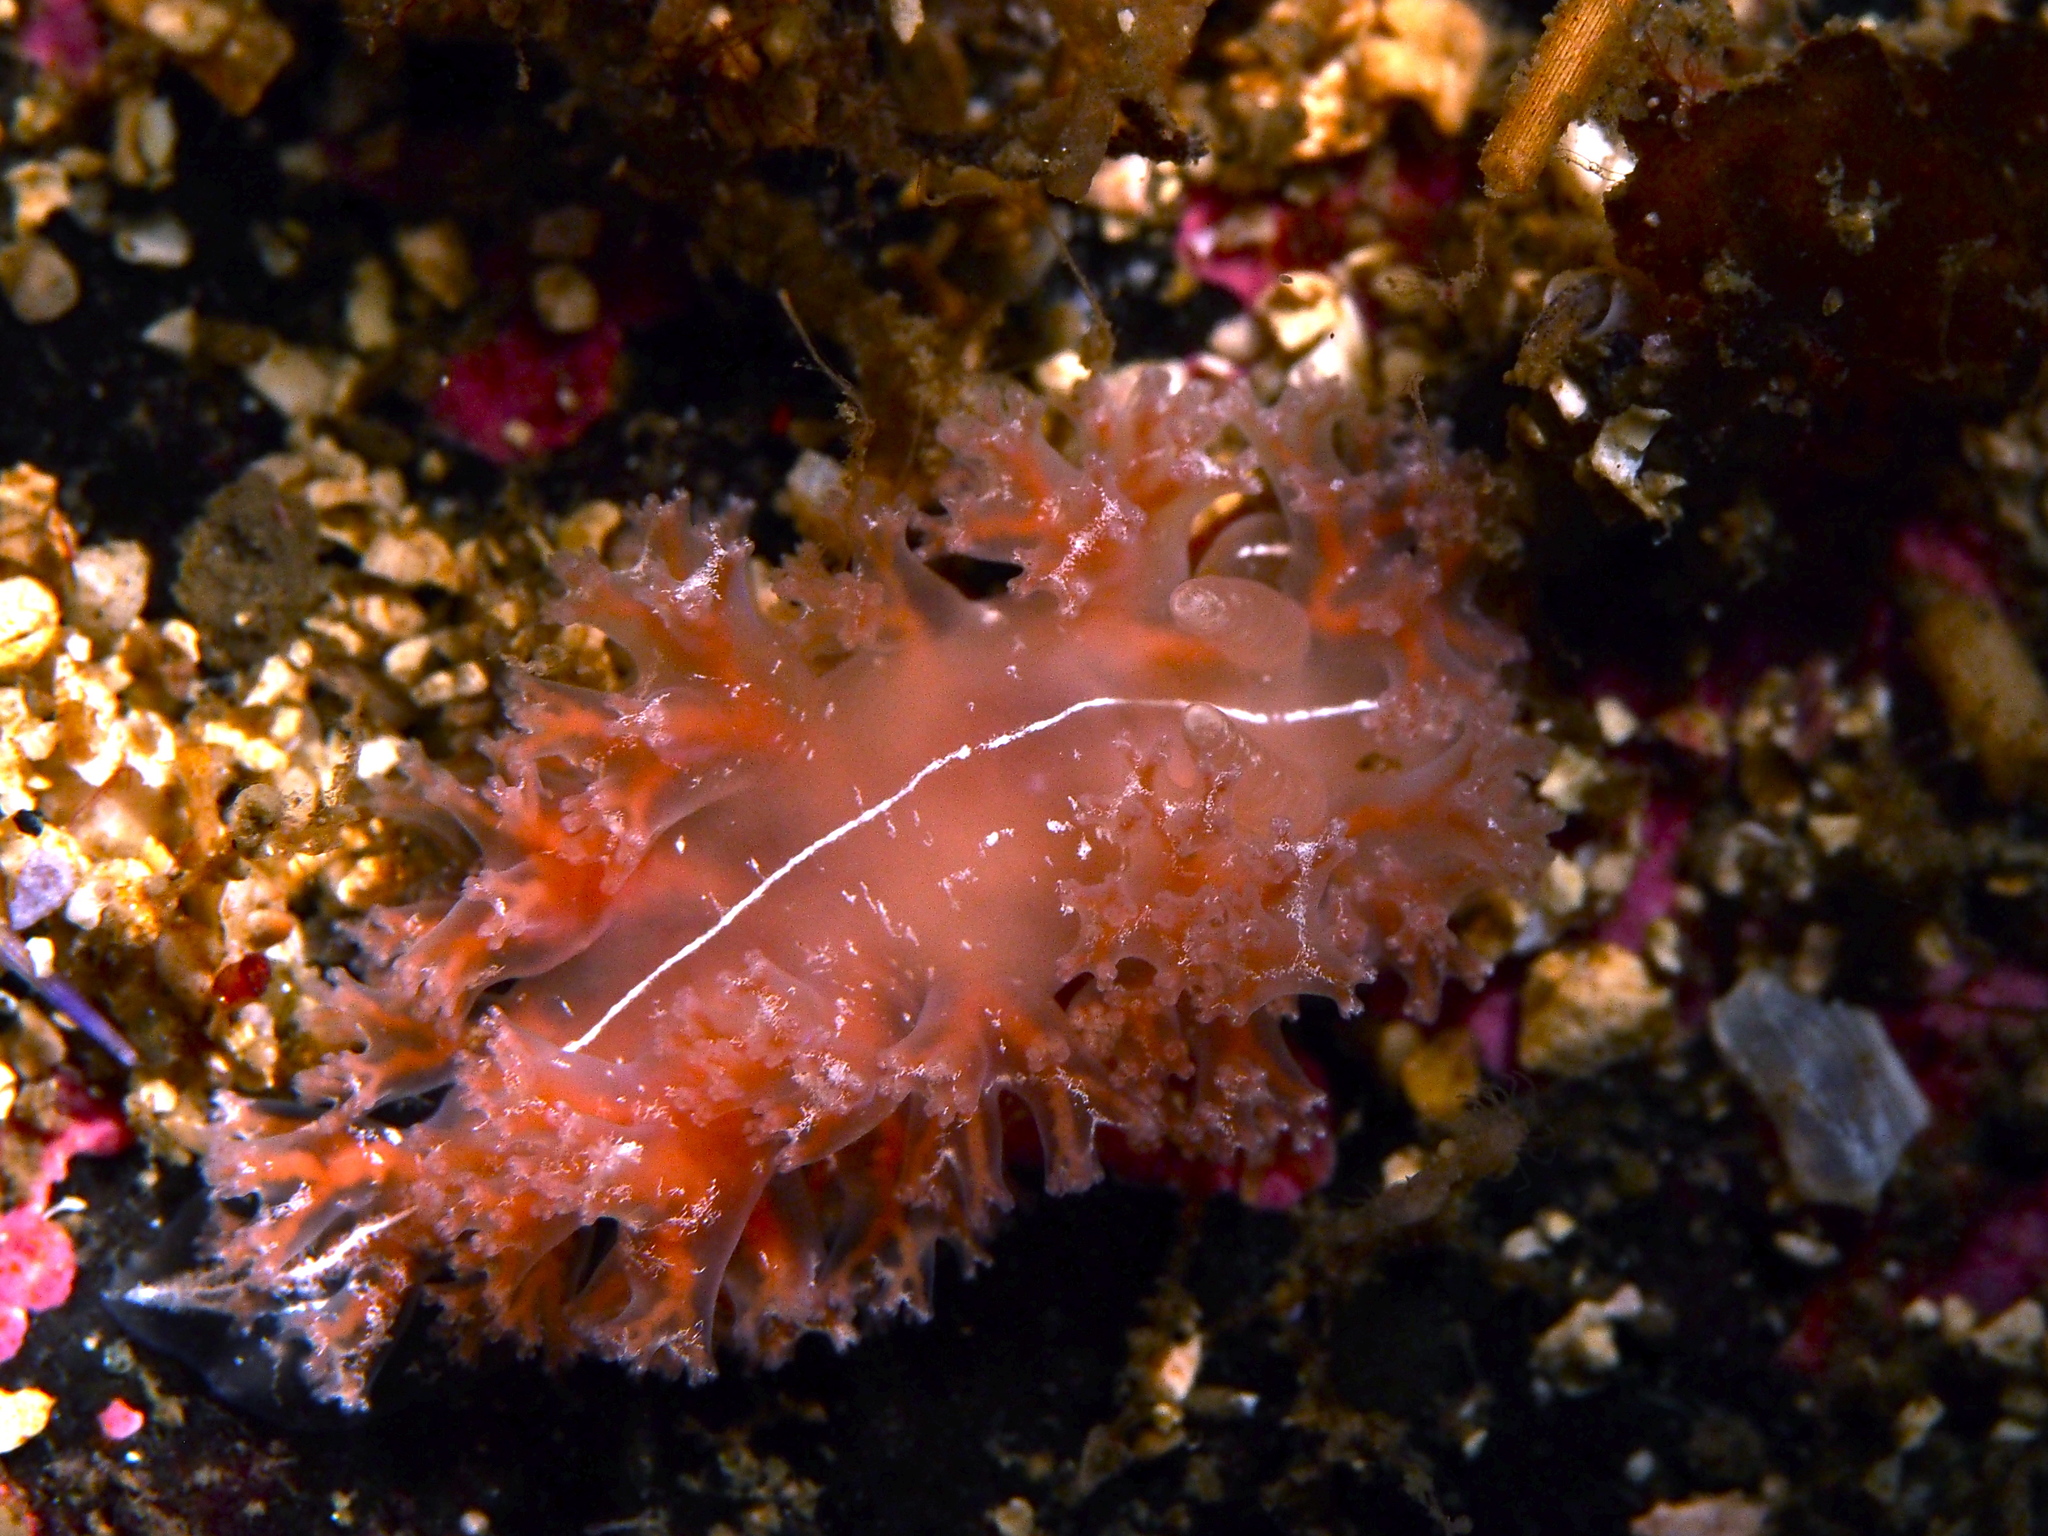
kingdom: Animalia
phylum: Mollusca
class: Gastropoda
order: Nudibranchia
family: Heroidae
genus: Hero
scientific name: Hero formosa
